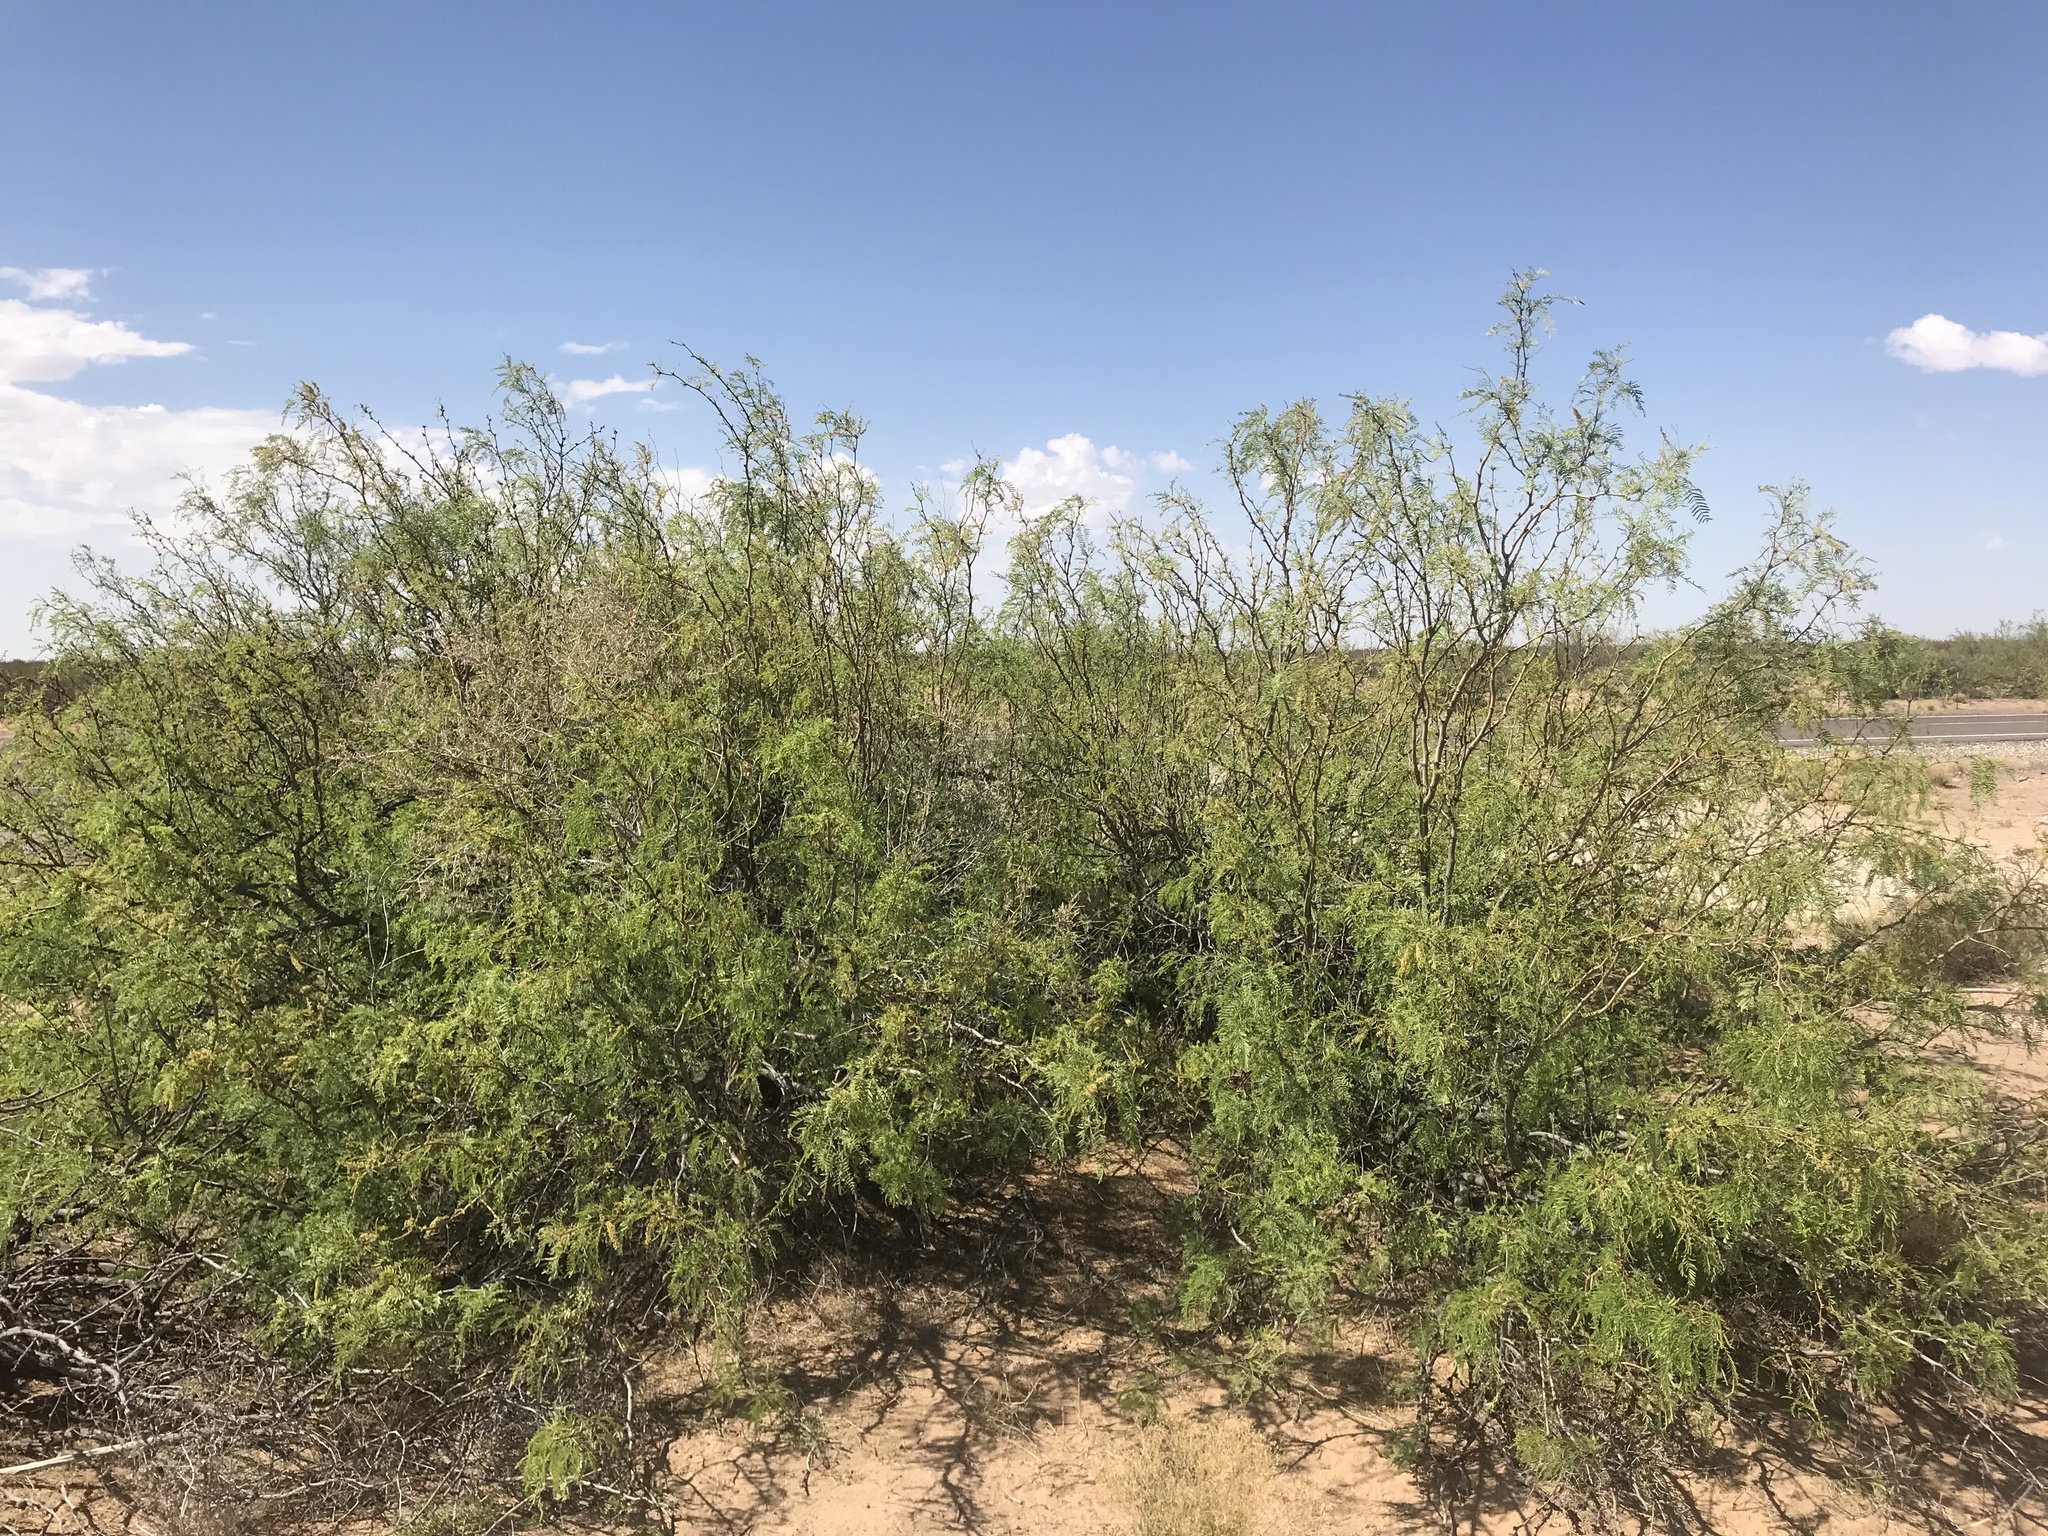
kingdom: Plantae
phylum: Tracheophyta
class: Magnoliopsida
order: Fabales
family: Fabaceae
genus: Prosopis
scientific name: Prosopis glandulosa
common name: Honey mesquite
